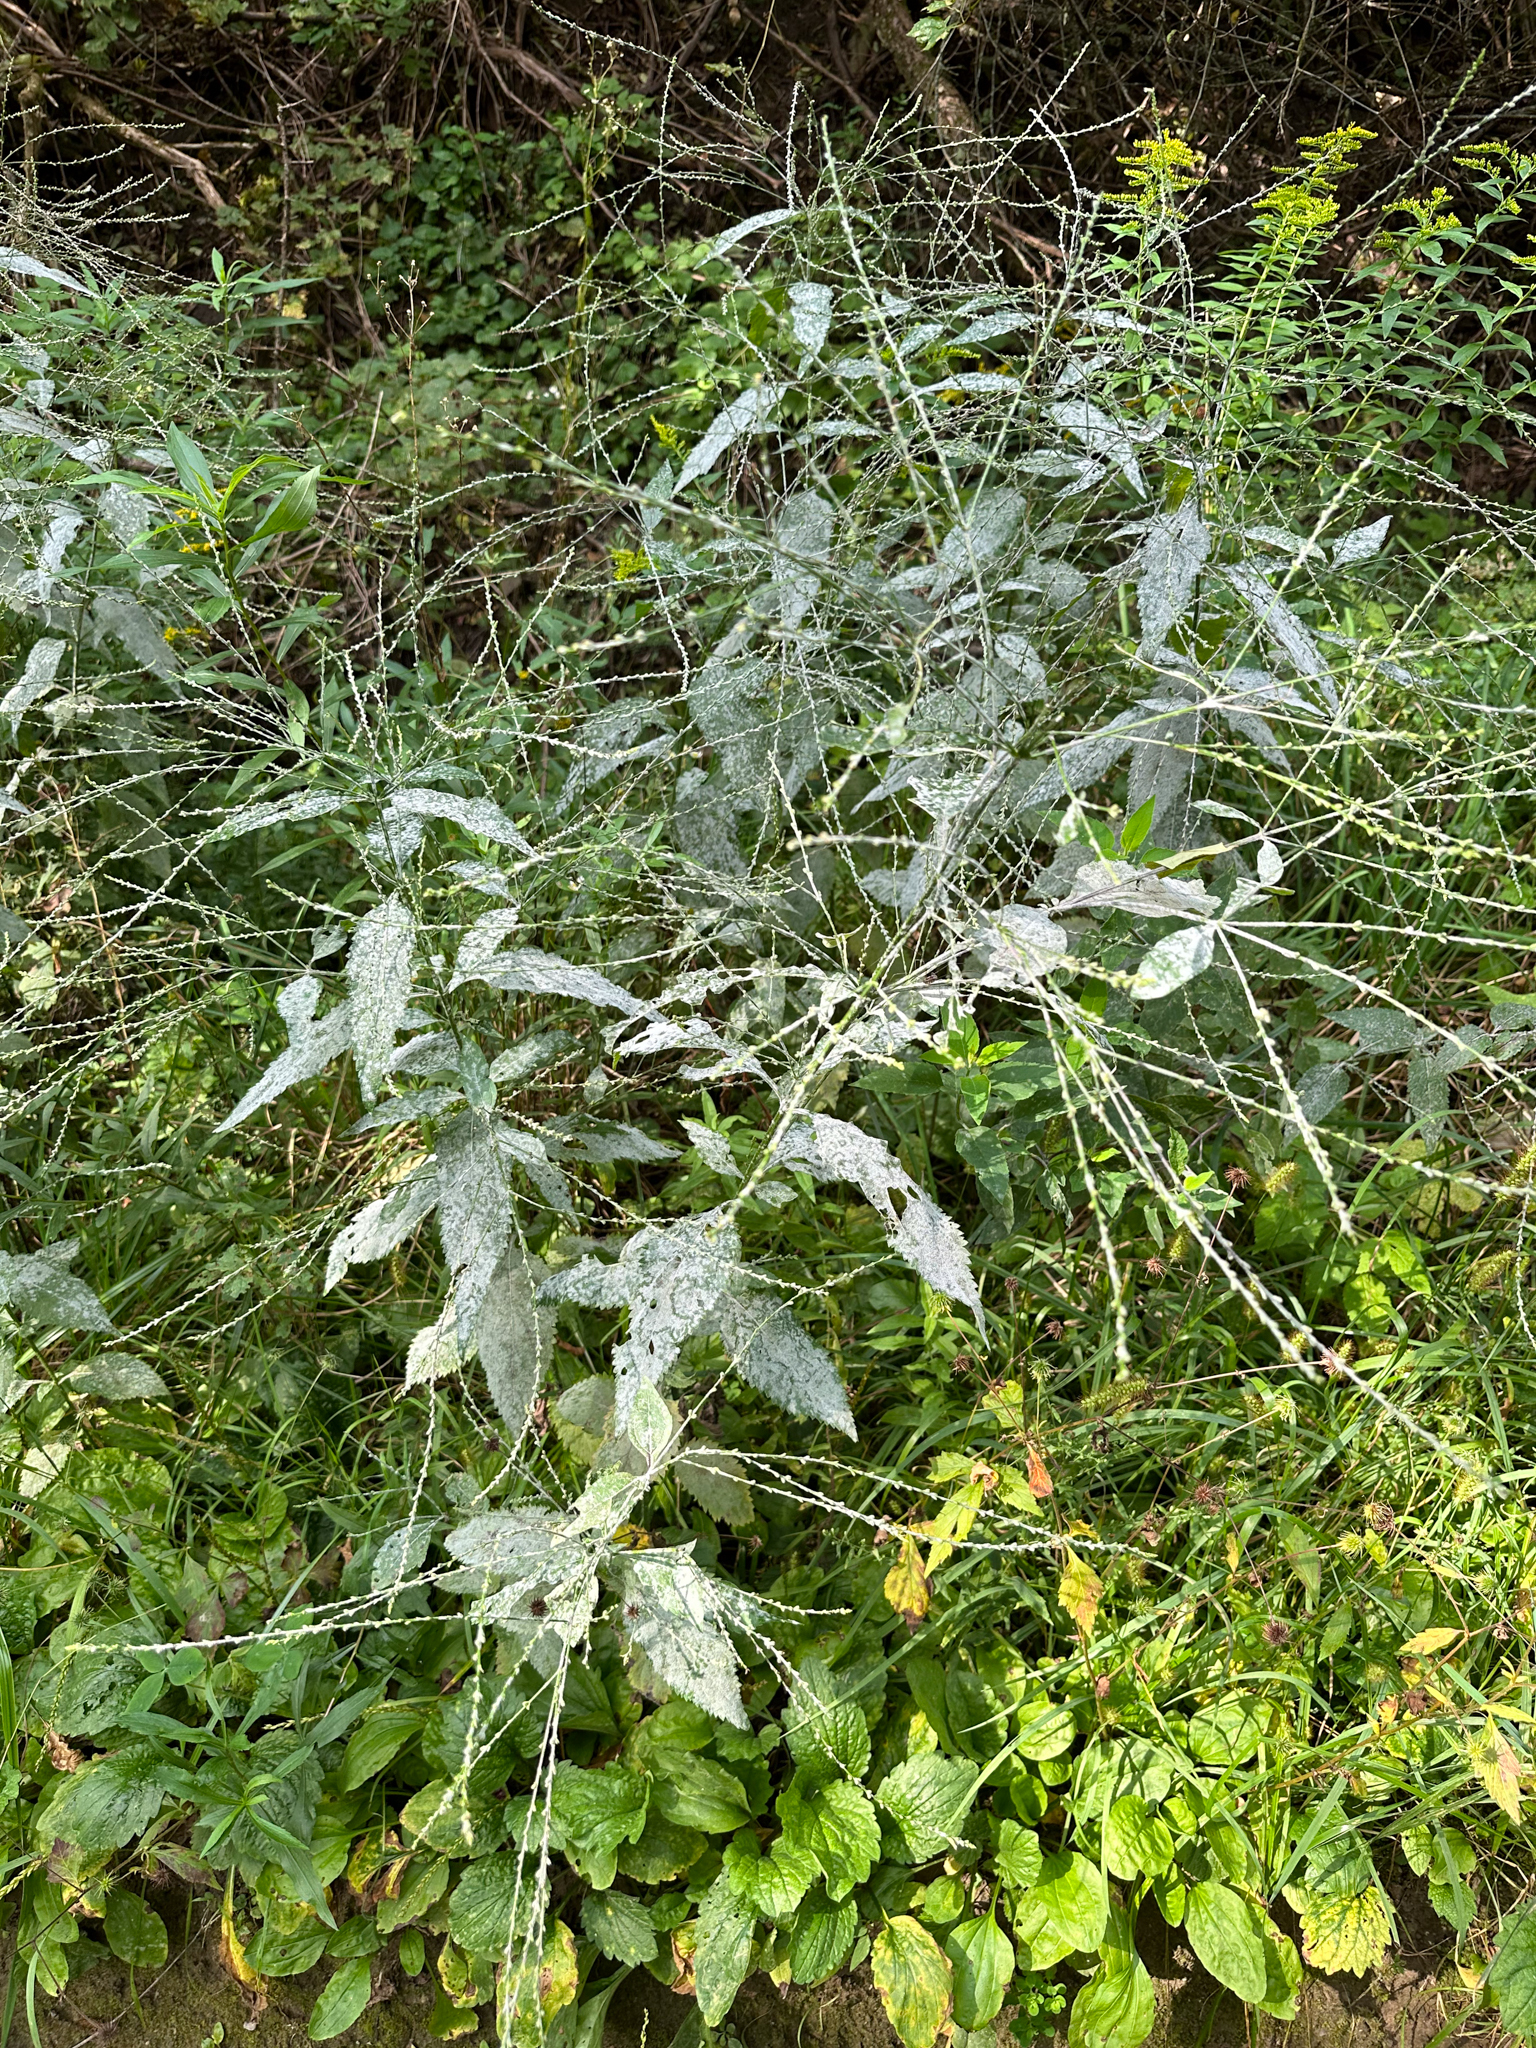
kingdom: Plantae
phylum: Tracheophyta
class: Magnoliopsida
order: Lamiales
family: Verbenaceae
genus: Verbena
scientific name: Verbena urticifolia
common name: Nettle-leaved vervain
